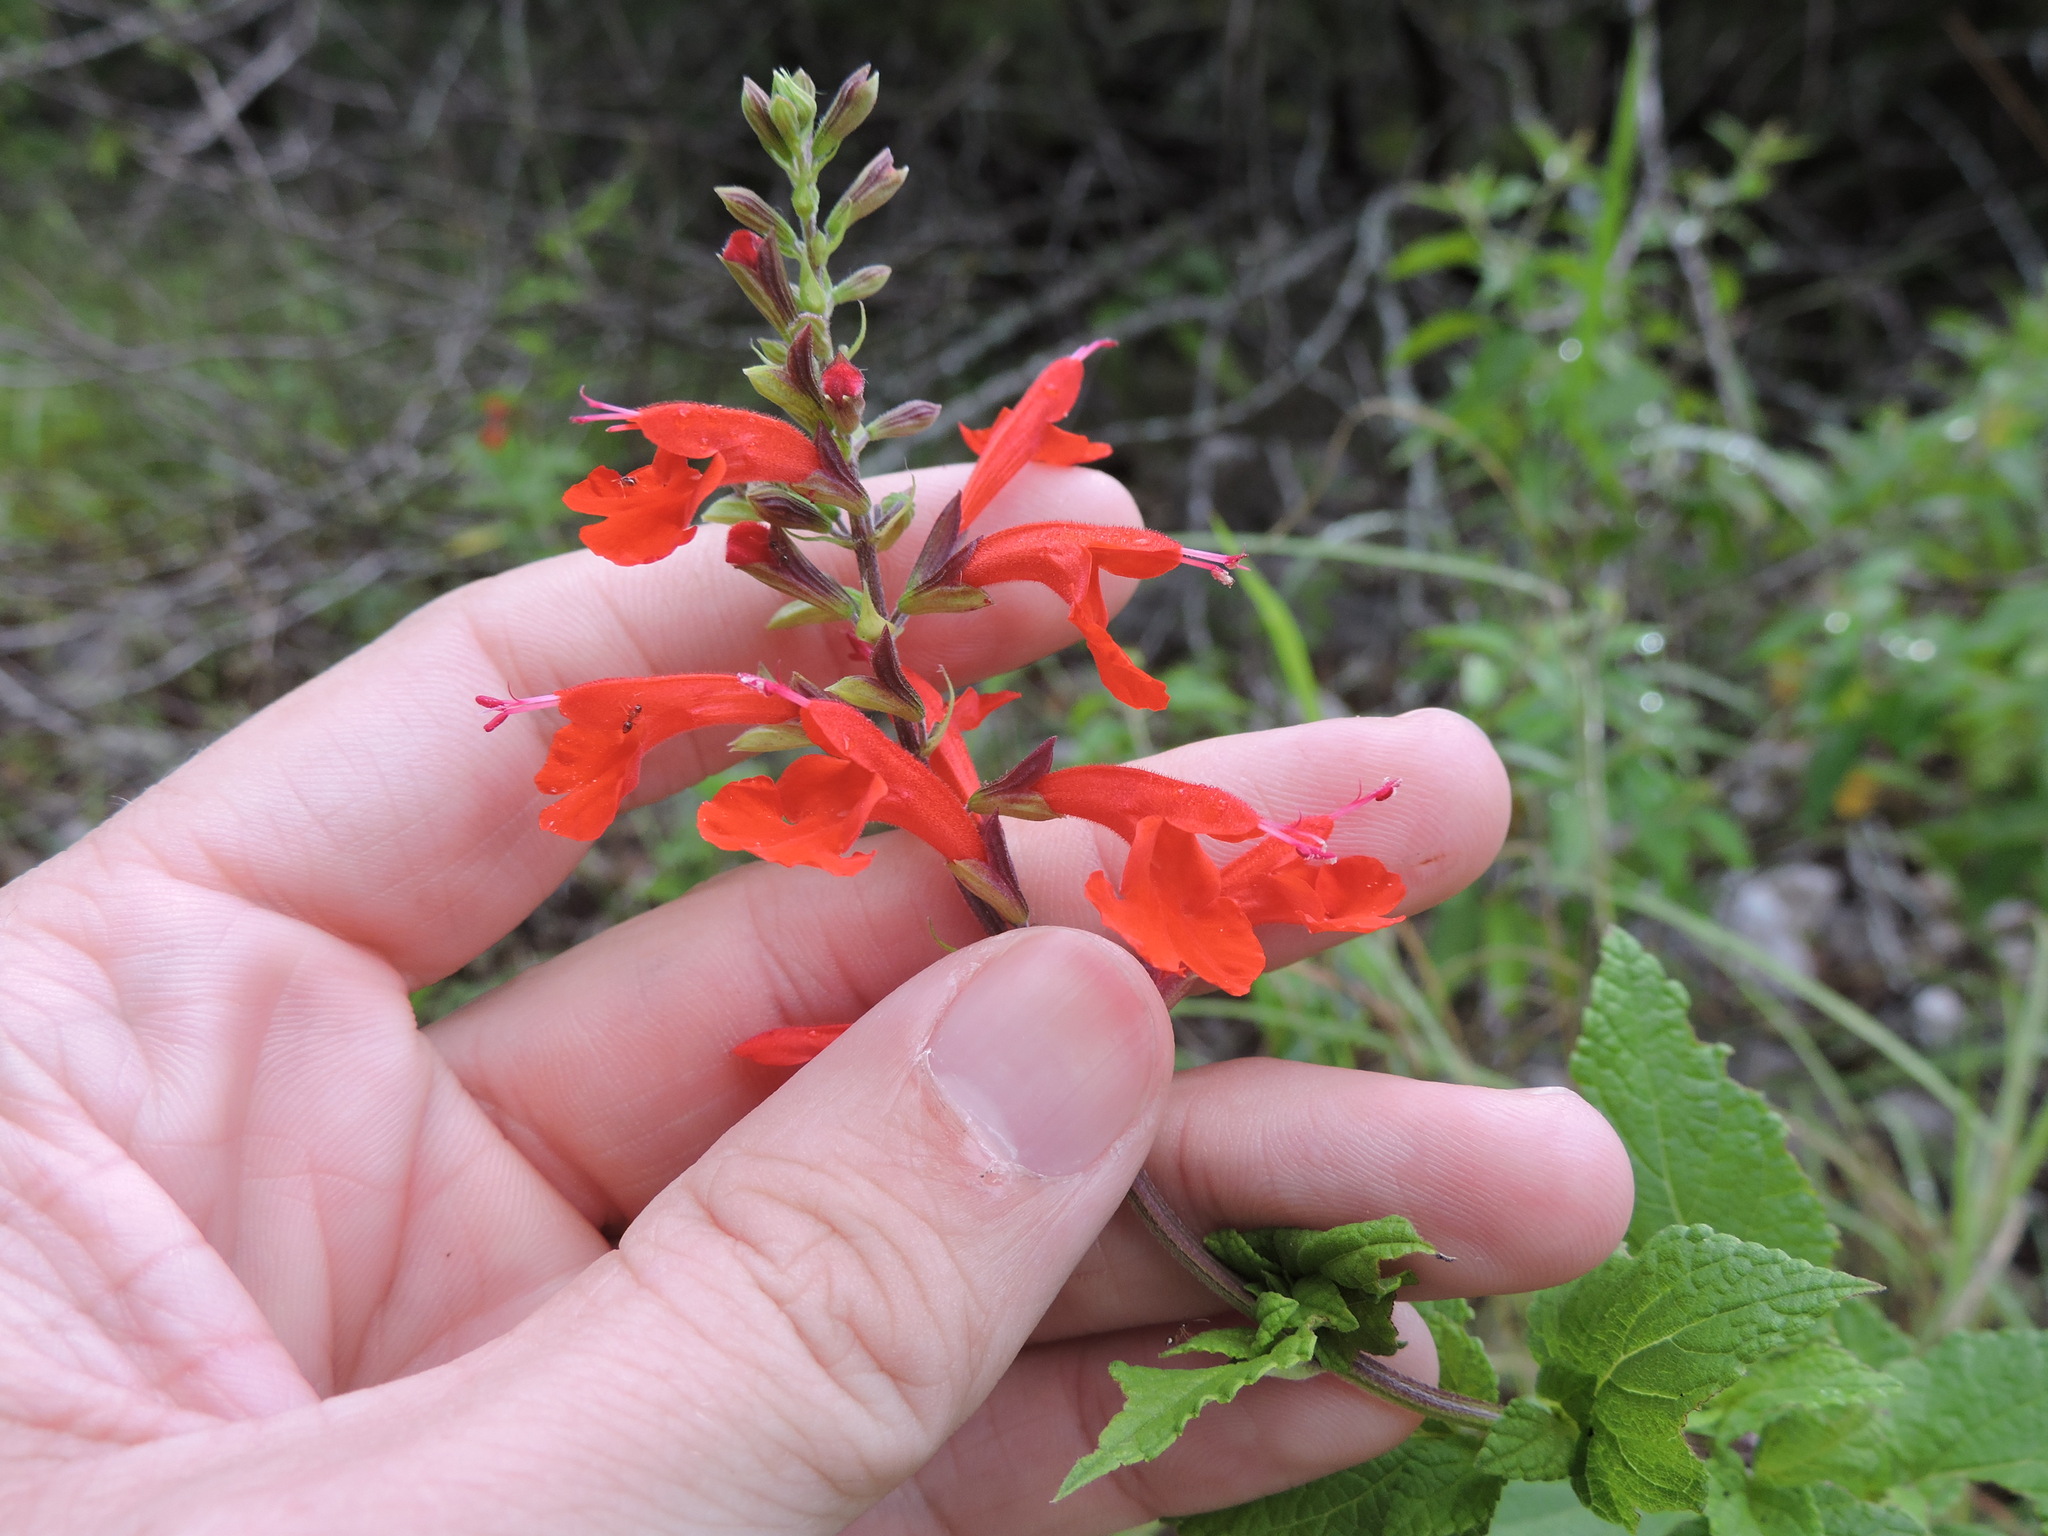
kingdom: Plantae
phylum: Tracheophyta
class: Magnoliopsida
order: Lamiales
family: Lamiaceae
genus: Salvia
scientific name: Salvia coccinea
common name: Blood sage
